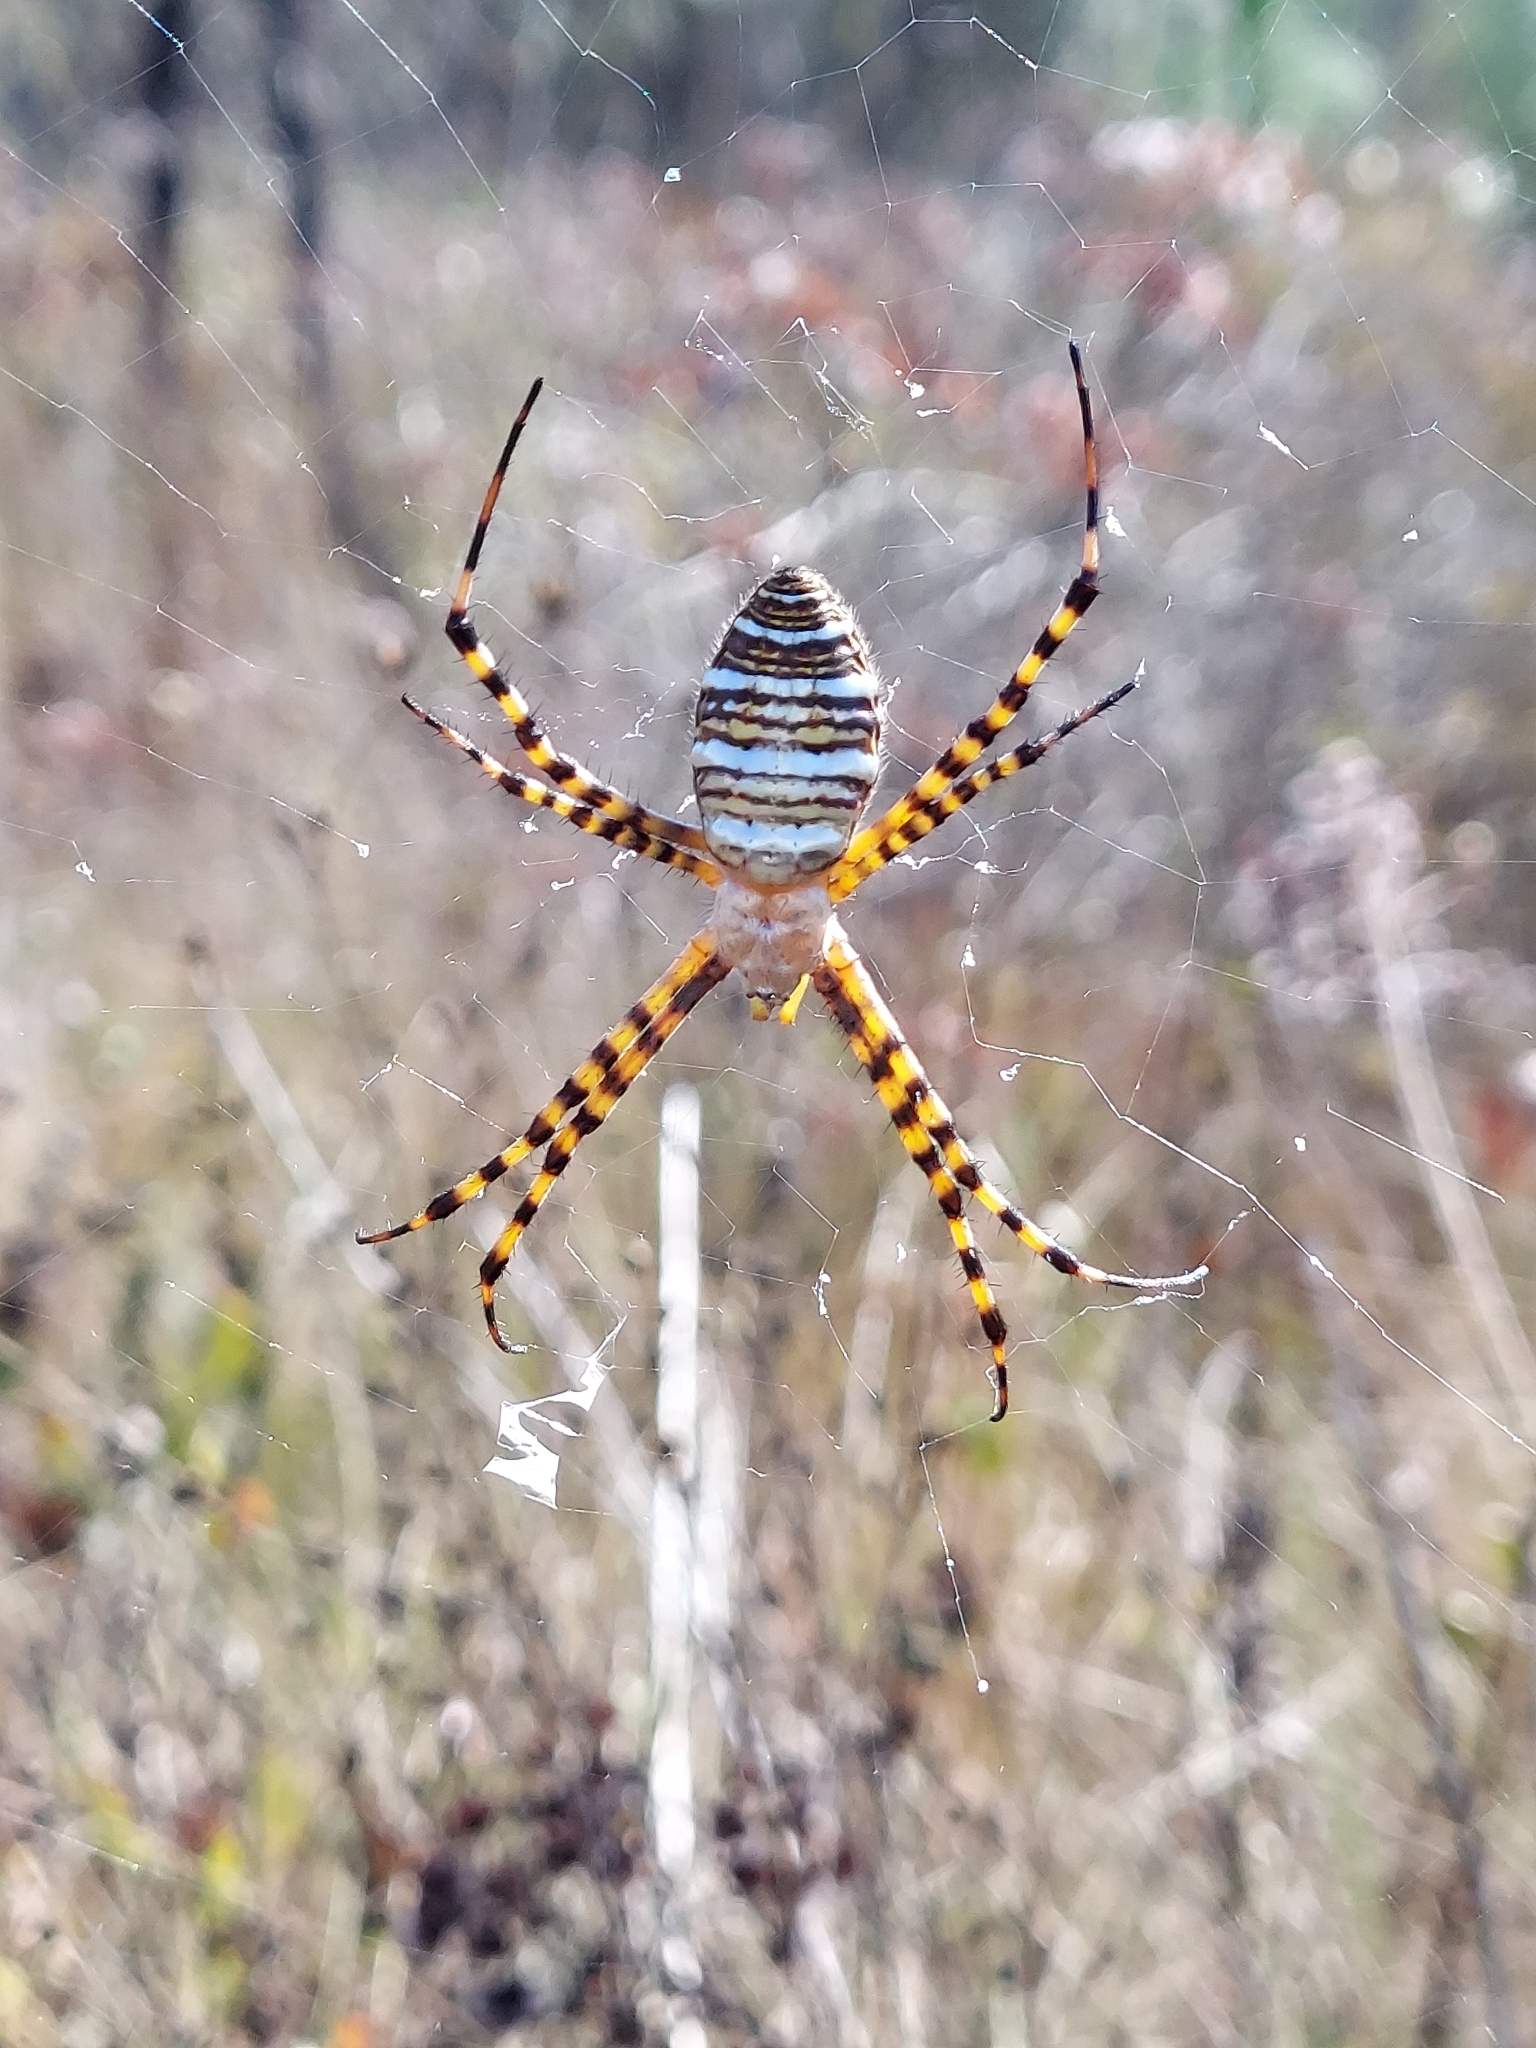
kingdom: Animalia
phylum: Arthropoda
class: Arachnida
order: Araneae
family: Araneidae
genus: Argiope
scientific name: Argiope trifasciata
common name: Banded garden spider
